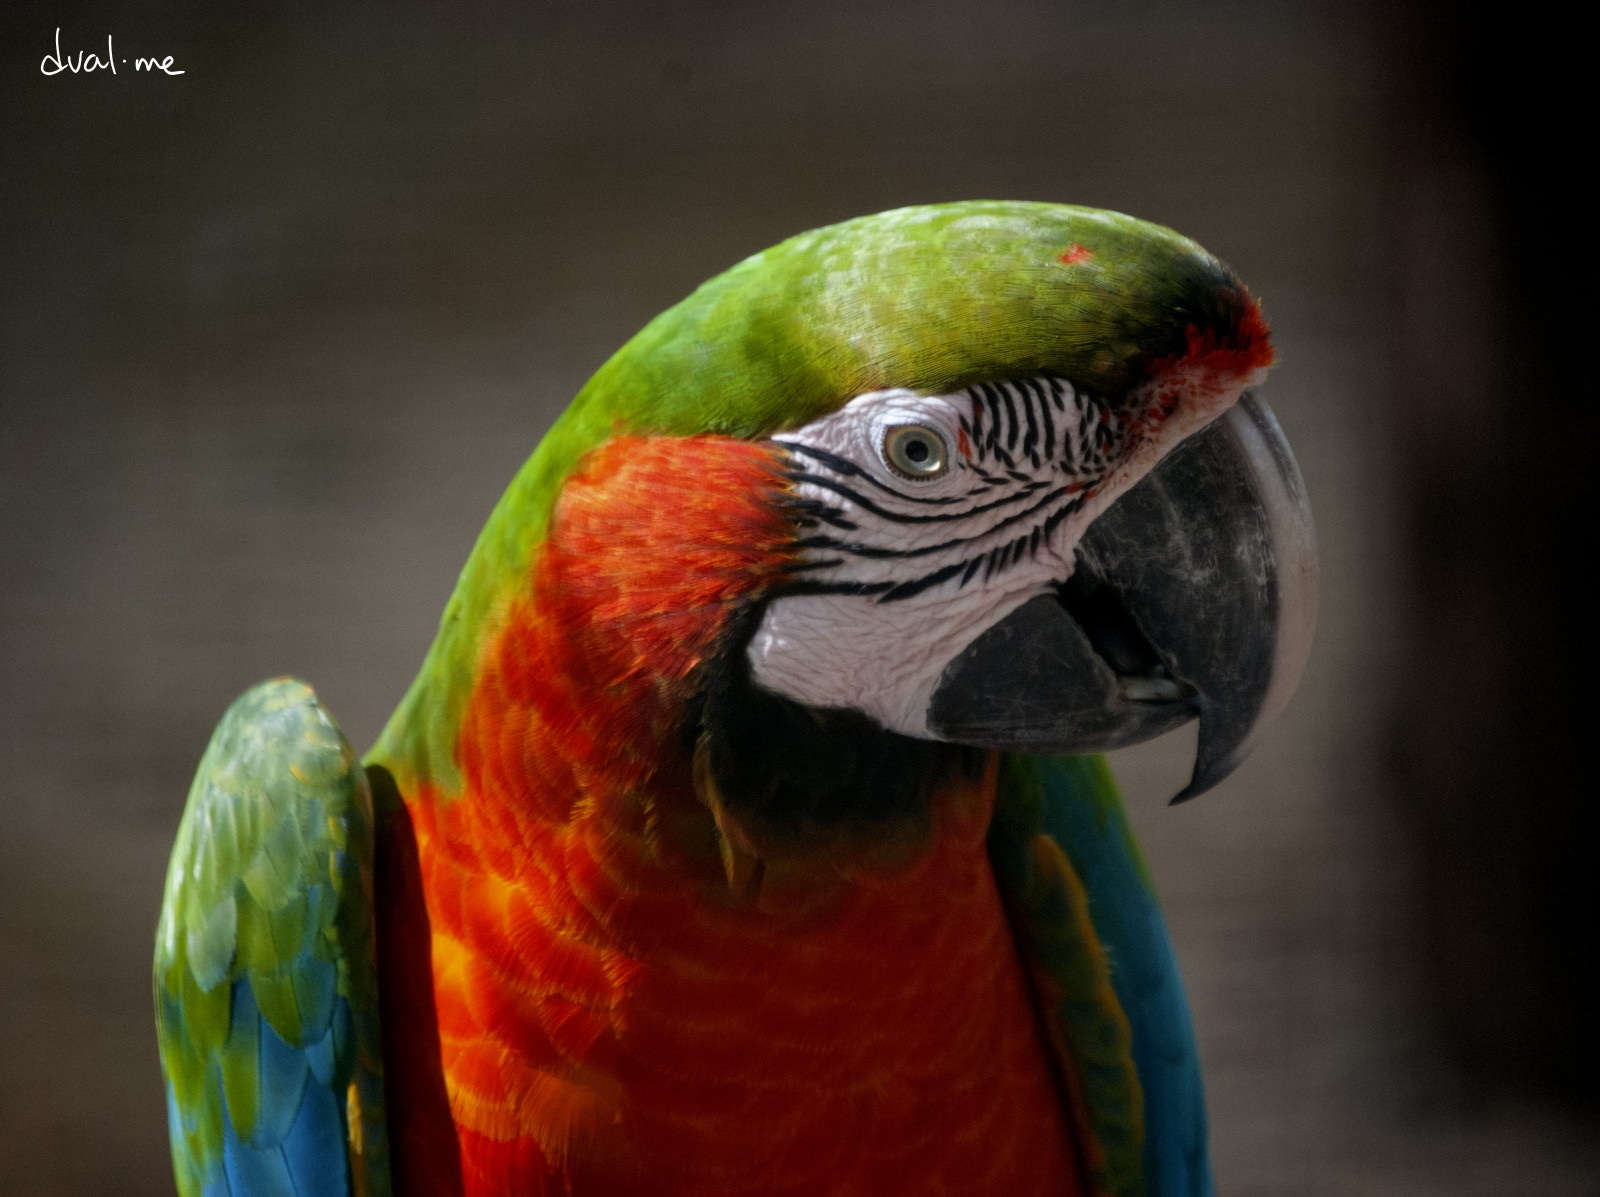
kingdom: Animalia
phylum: Chordata
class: Aves
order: Psittaciformes
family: Psittacidae
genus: Ara
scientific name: Ara
